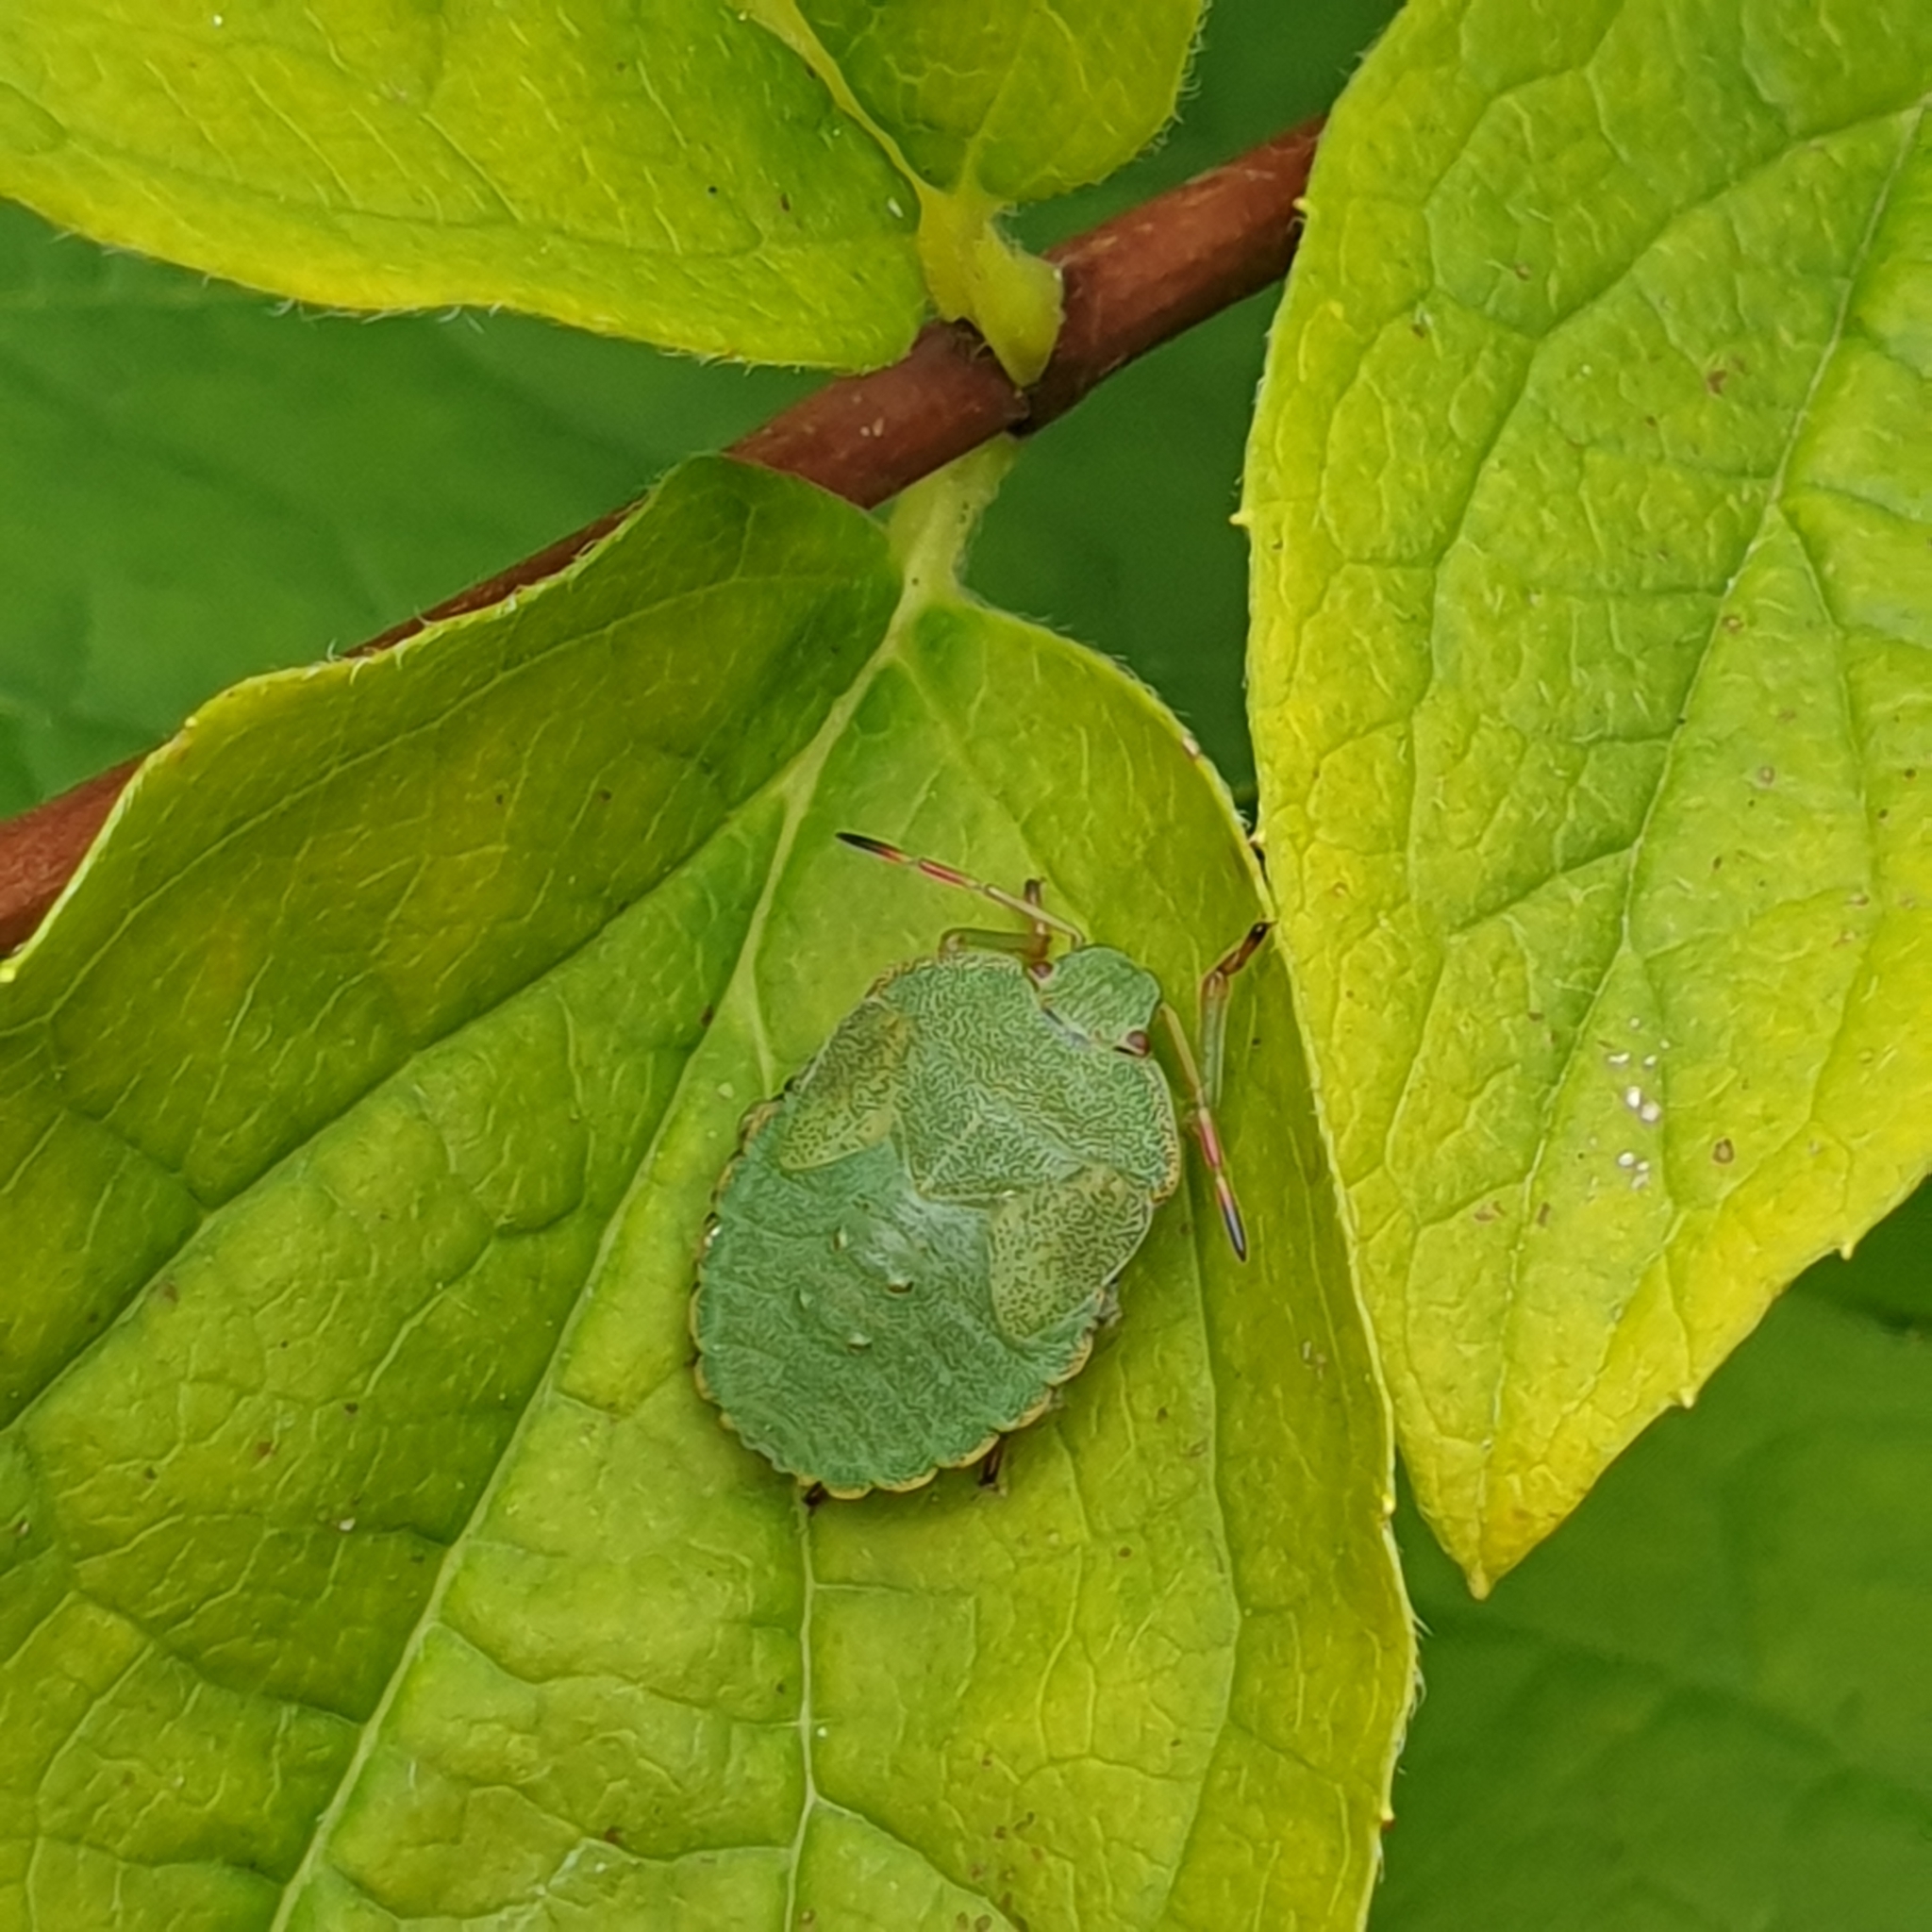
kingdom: Animalia
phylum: Arthropoda
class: Insecta
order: Hemiptera
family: Pentatomidae
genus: Palomena
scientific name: Palomena prasina
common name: Green shieldbug
